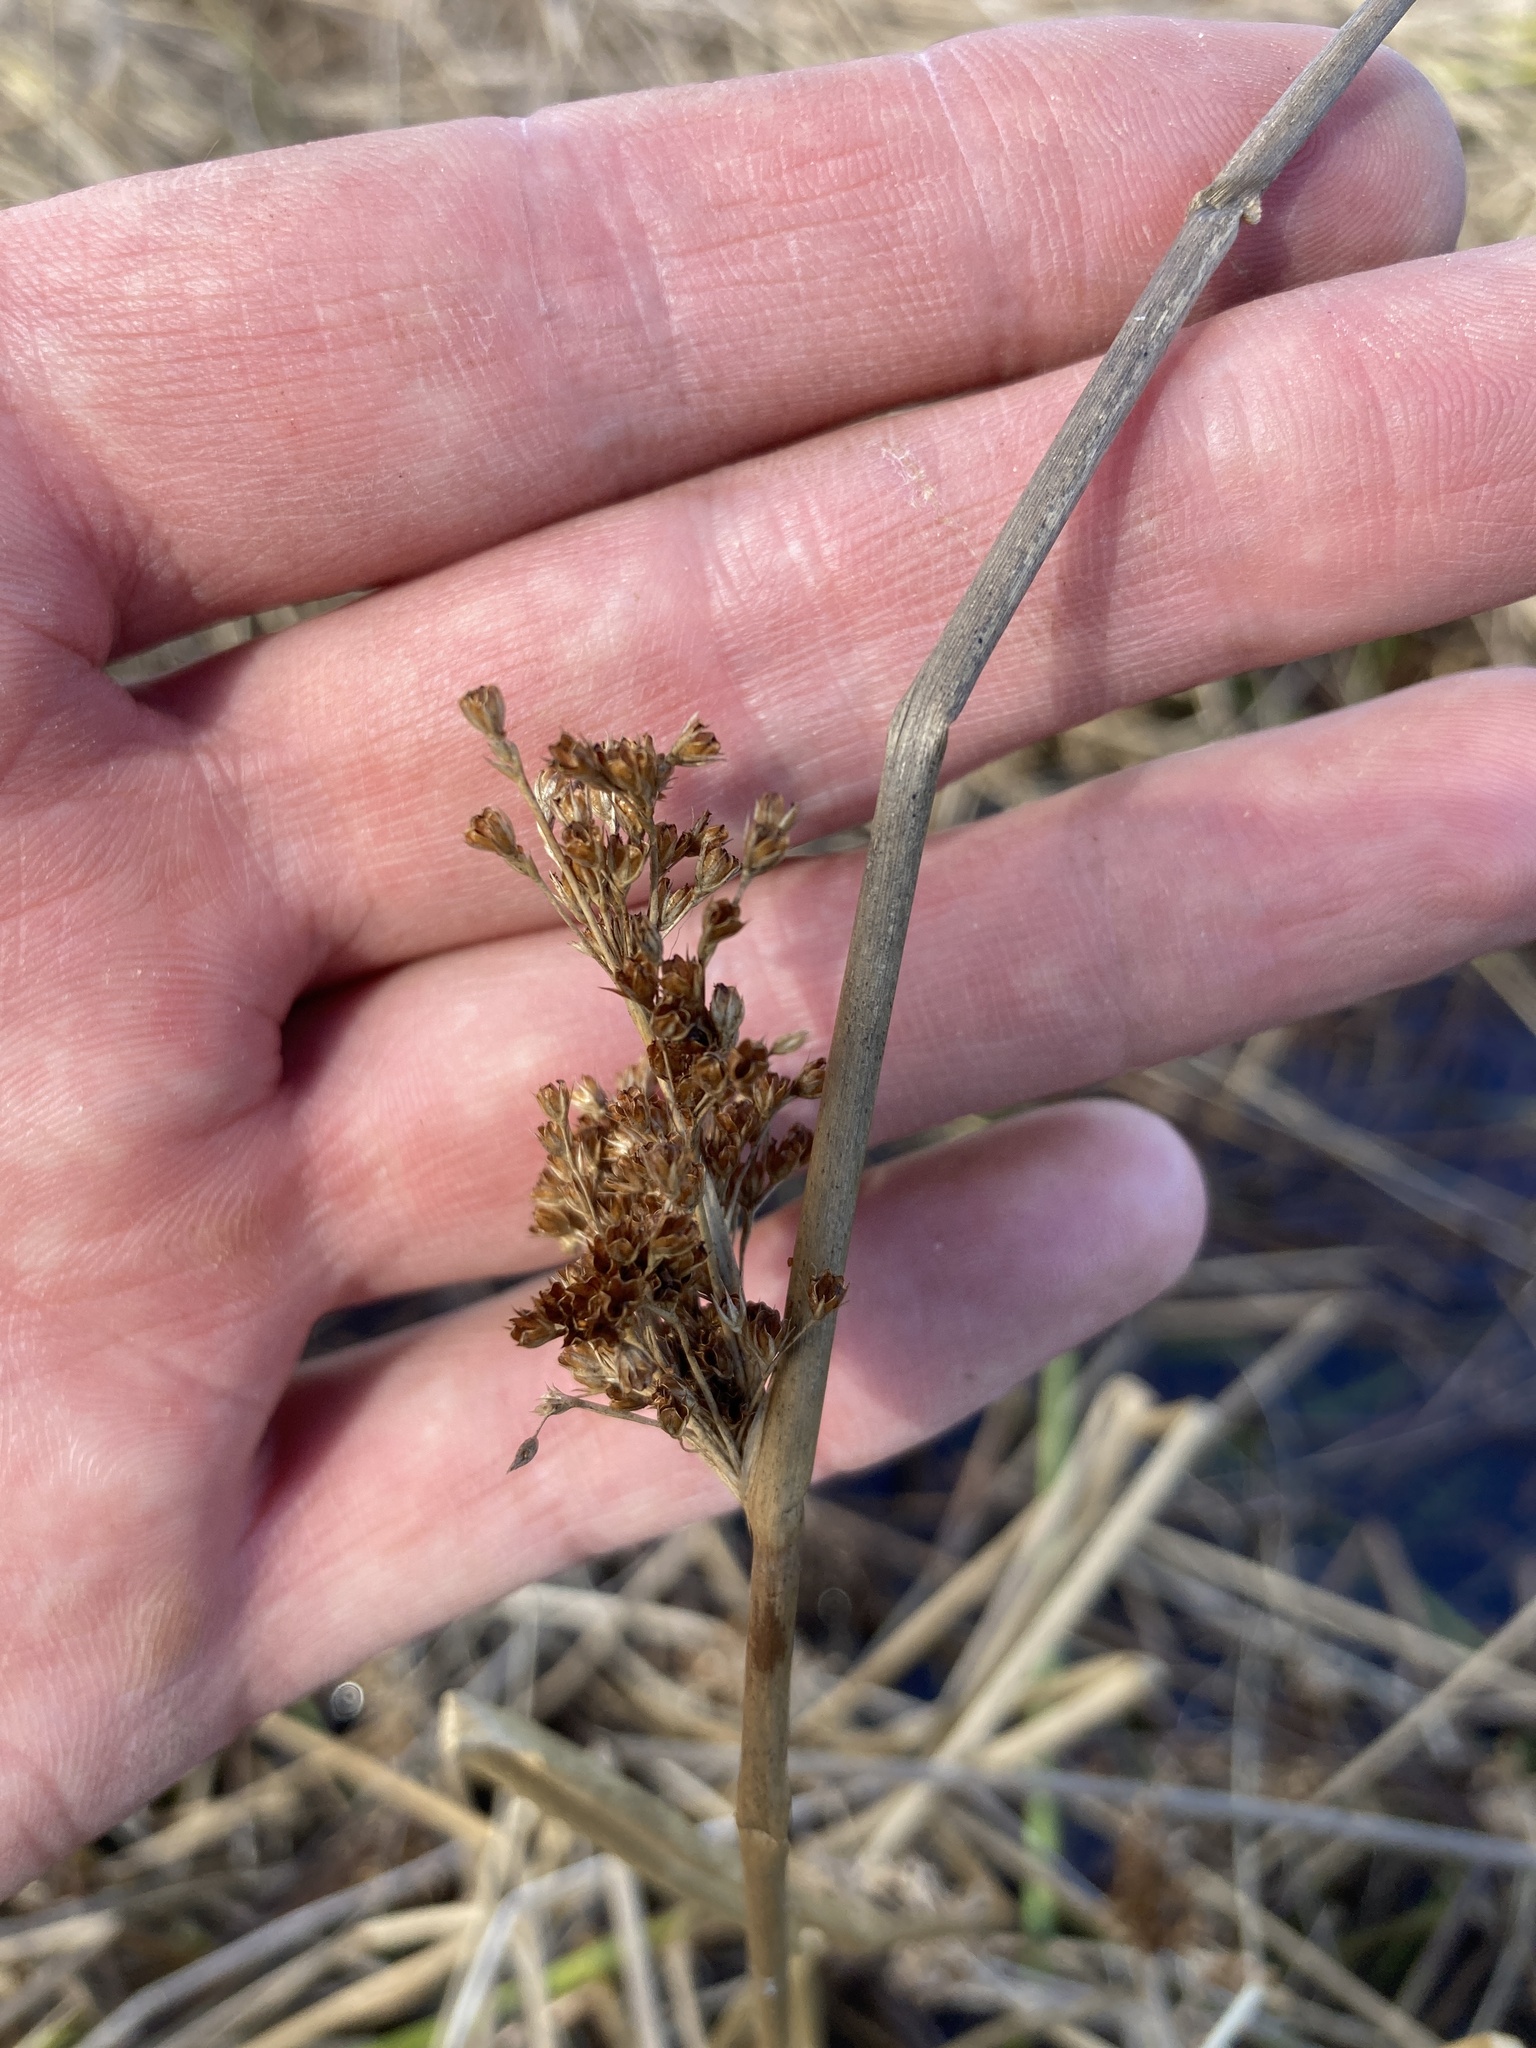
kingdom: Plantae
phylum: Tracheophyta
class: Liliopsida
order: Poales
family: Juncaceae
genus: Juncus
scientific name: Juncus effusus
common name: Soft rush
